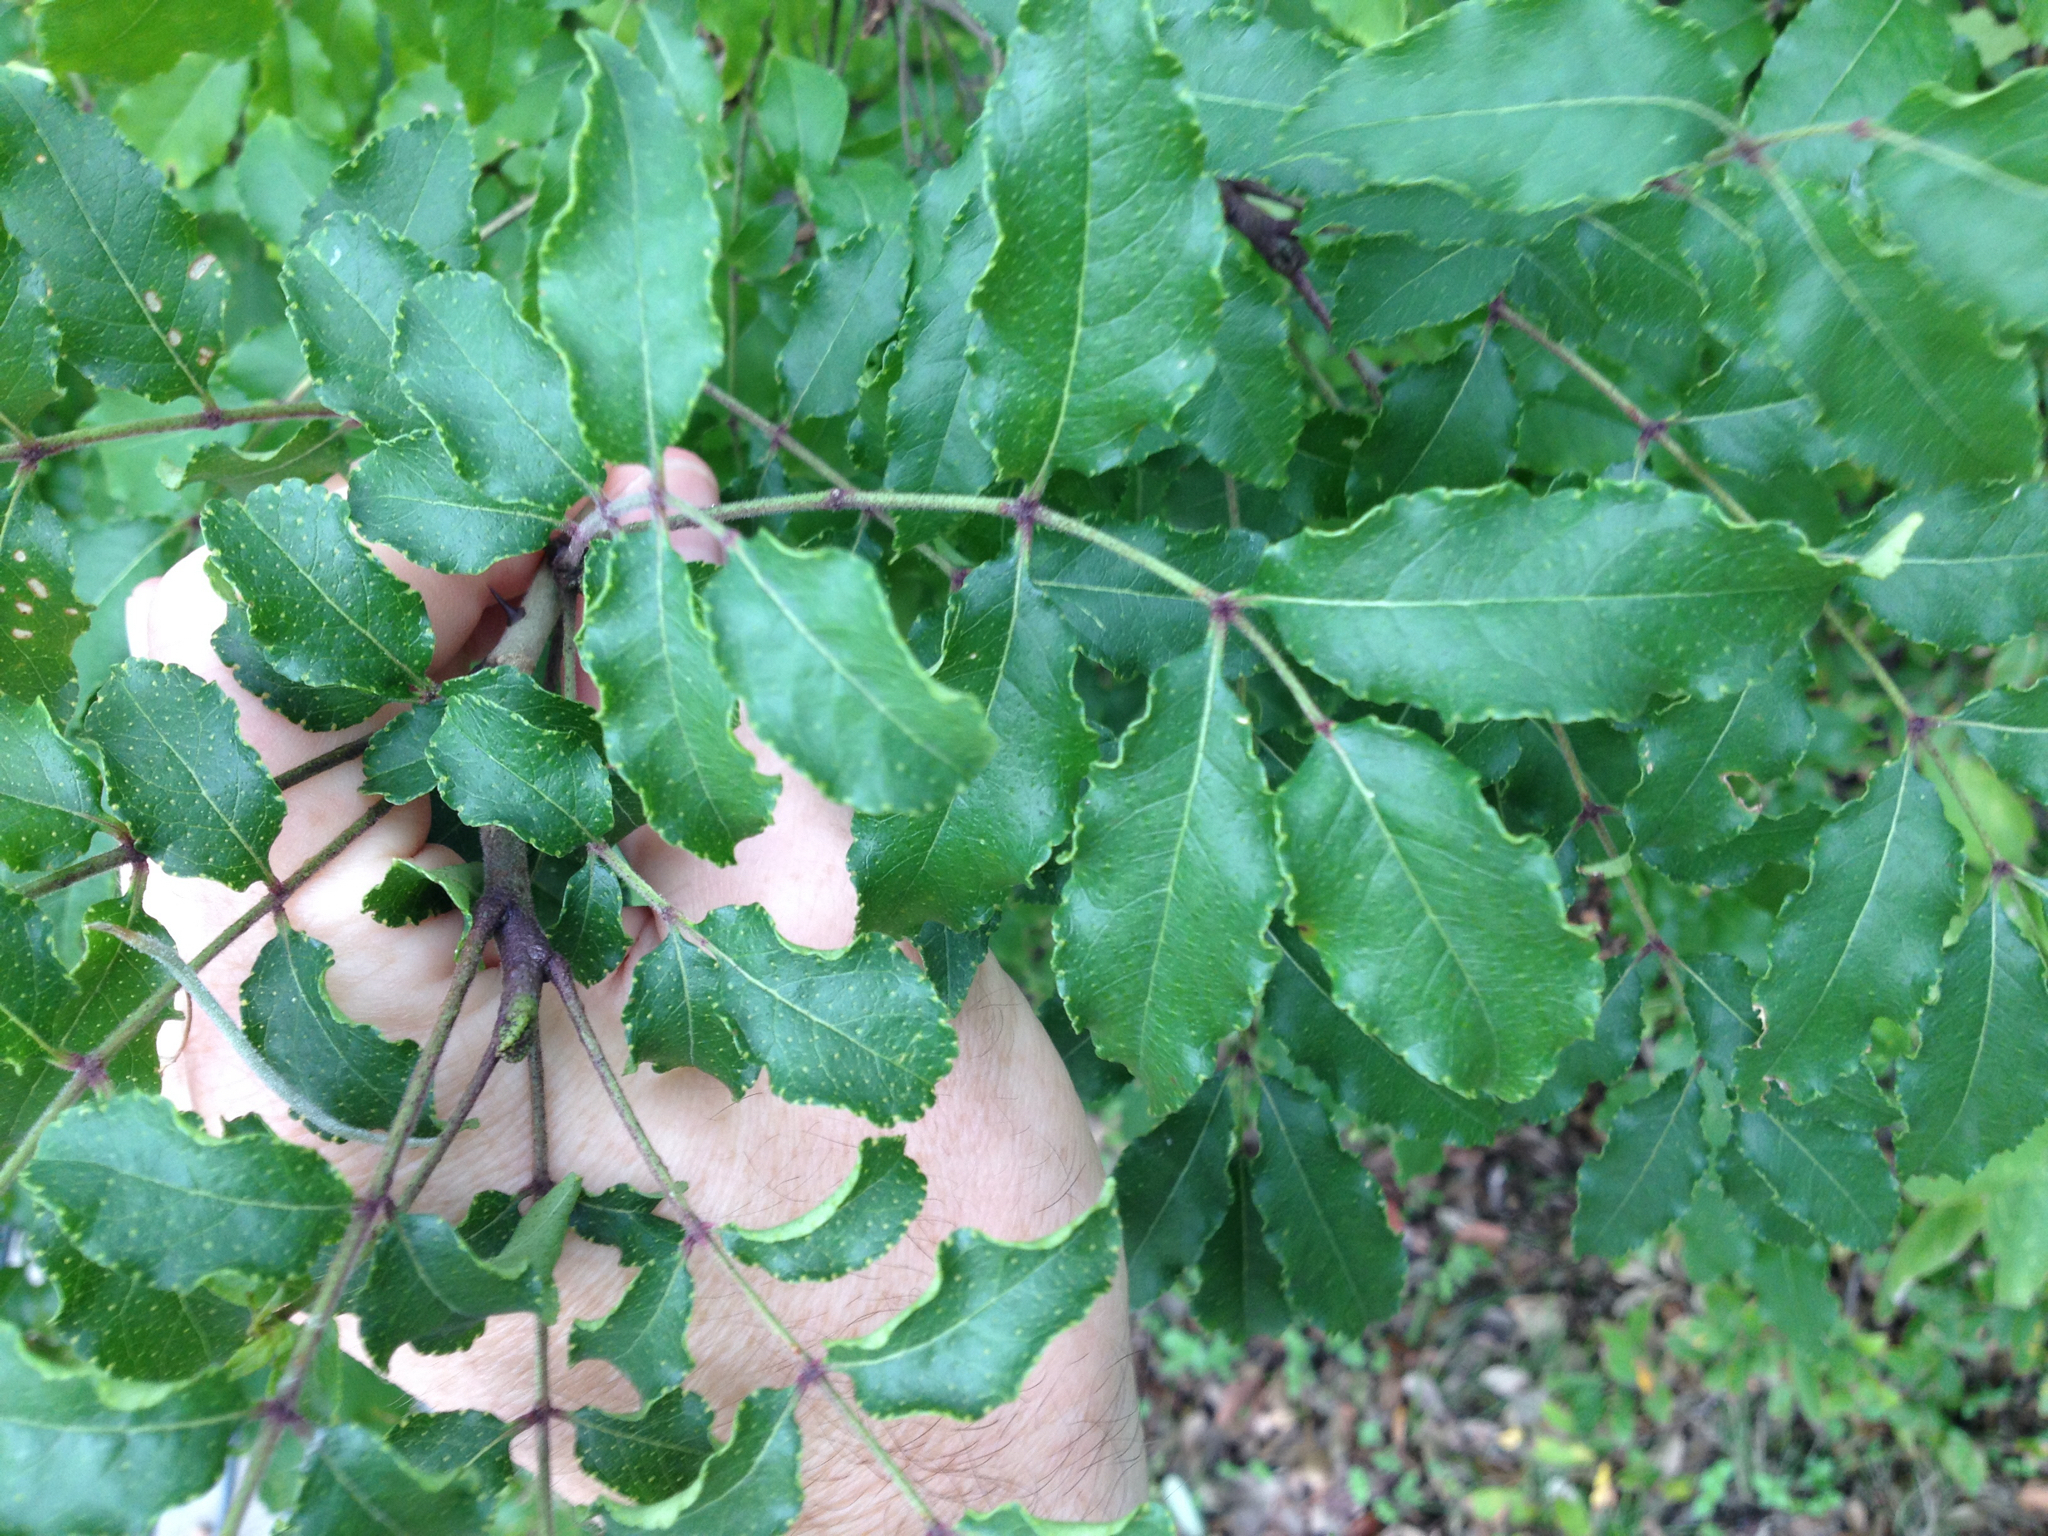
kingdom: Plantae
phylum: Tracheophyta
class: Magnoliopsida
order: Sapindales
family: Rutaceae
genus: Zanthoxylum
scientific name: Zanthoxylum
